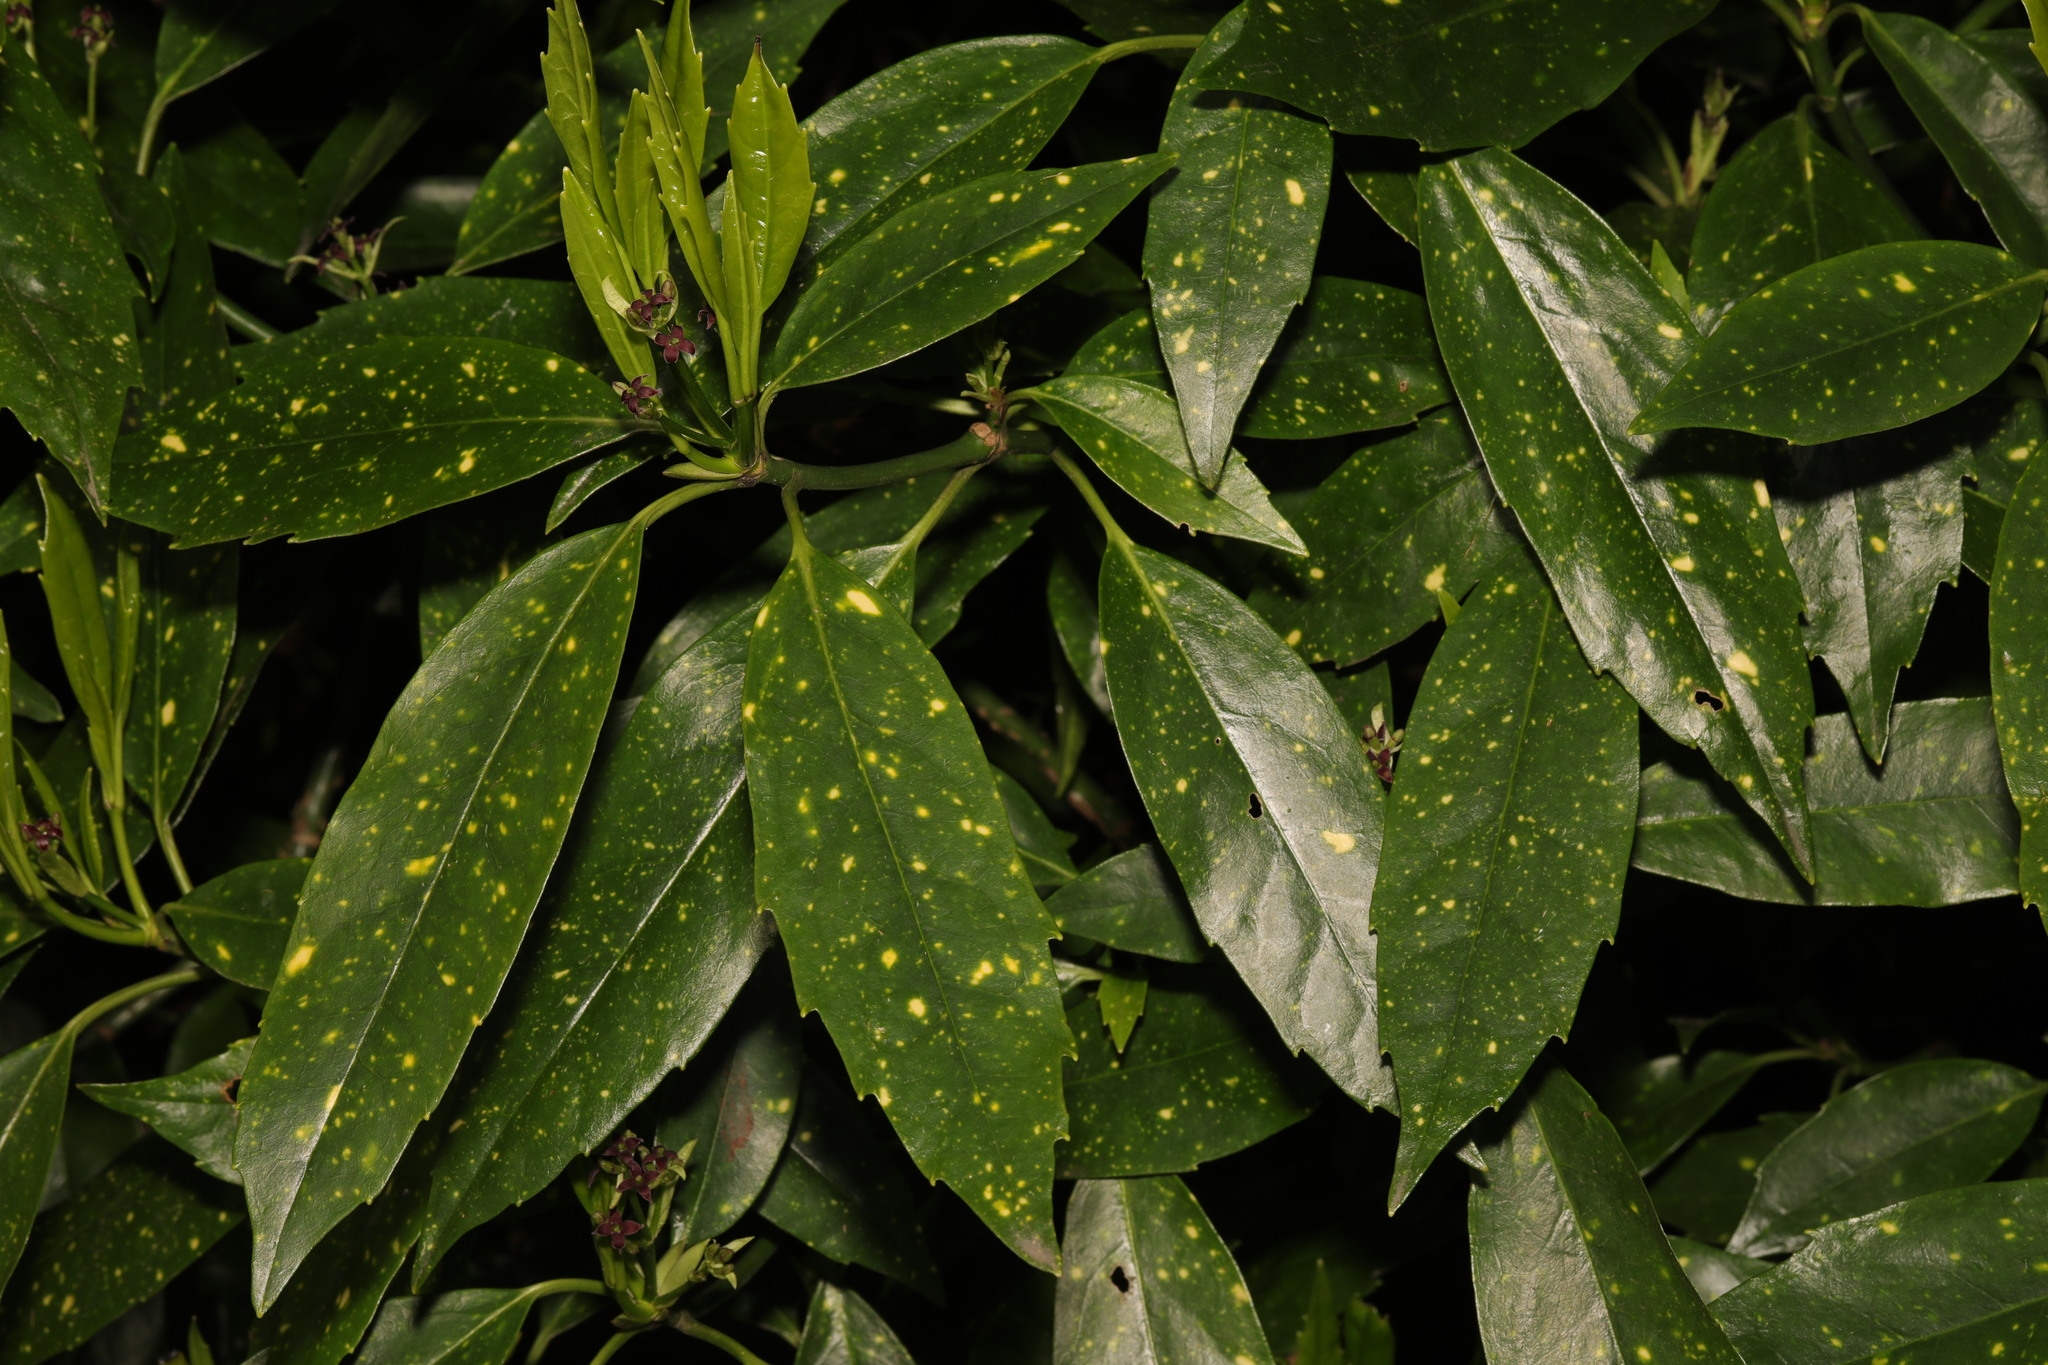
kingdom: Plantae
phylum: Tracheophyta
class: Magnoliopsida
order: Garryales
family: Garryaceae
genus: Aucuba
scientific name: Aucuba japonica
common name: Spotted-laurel
